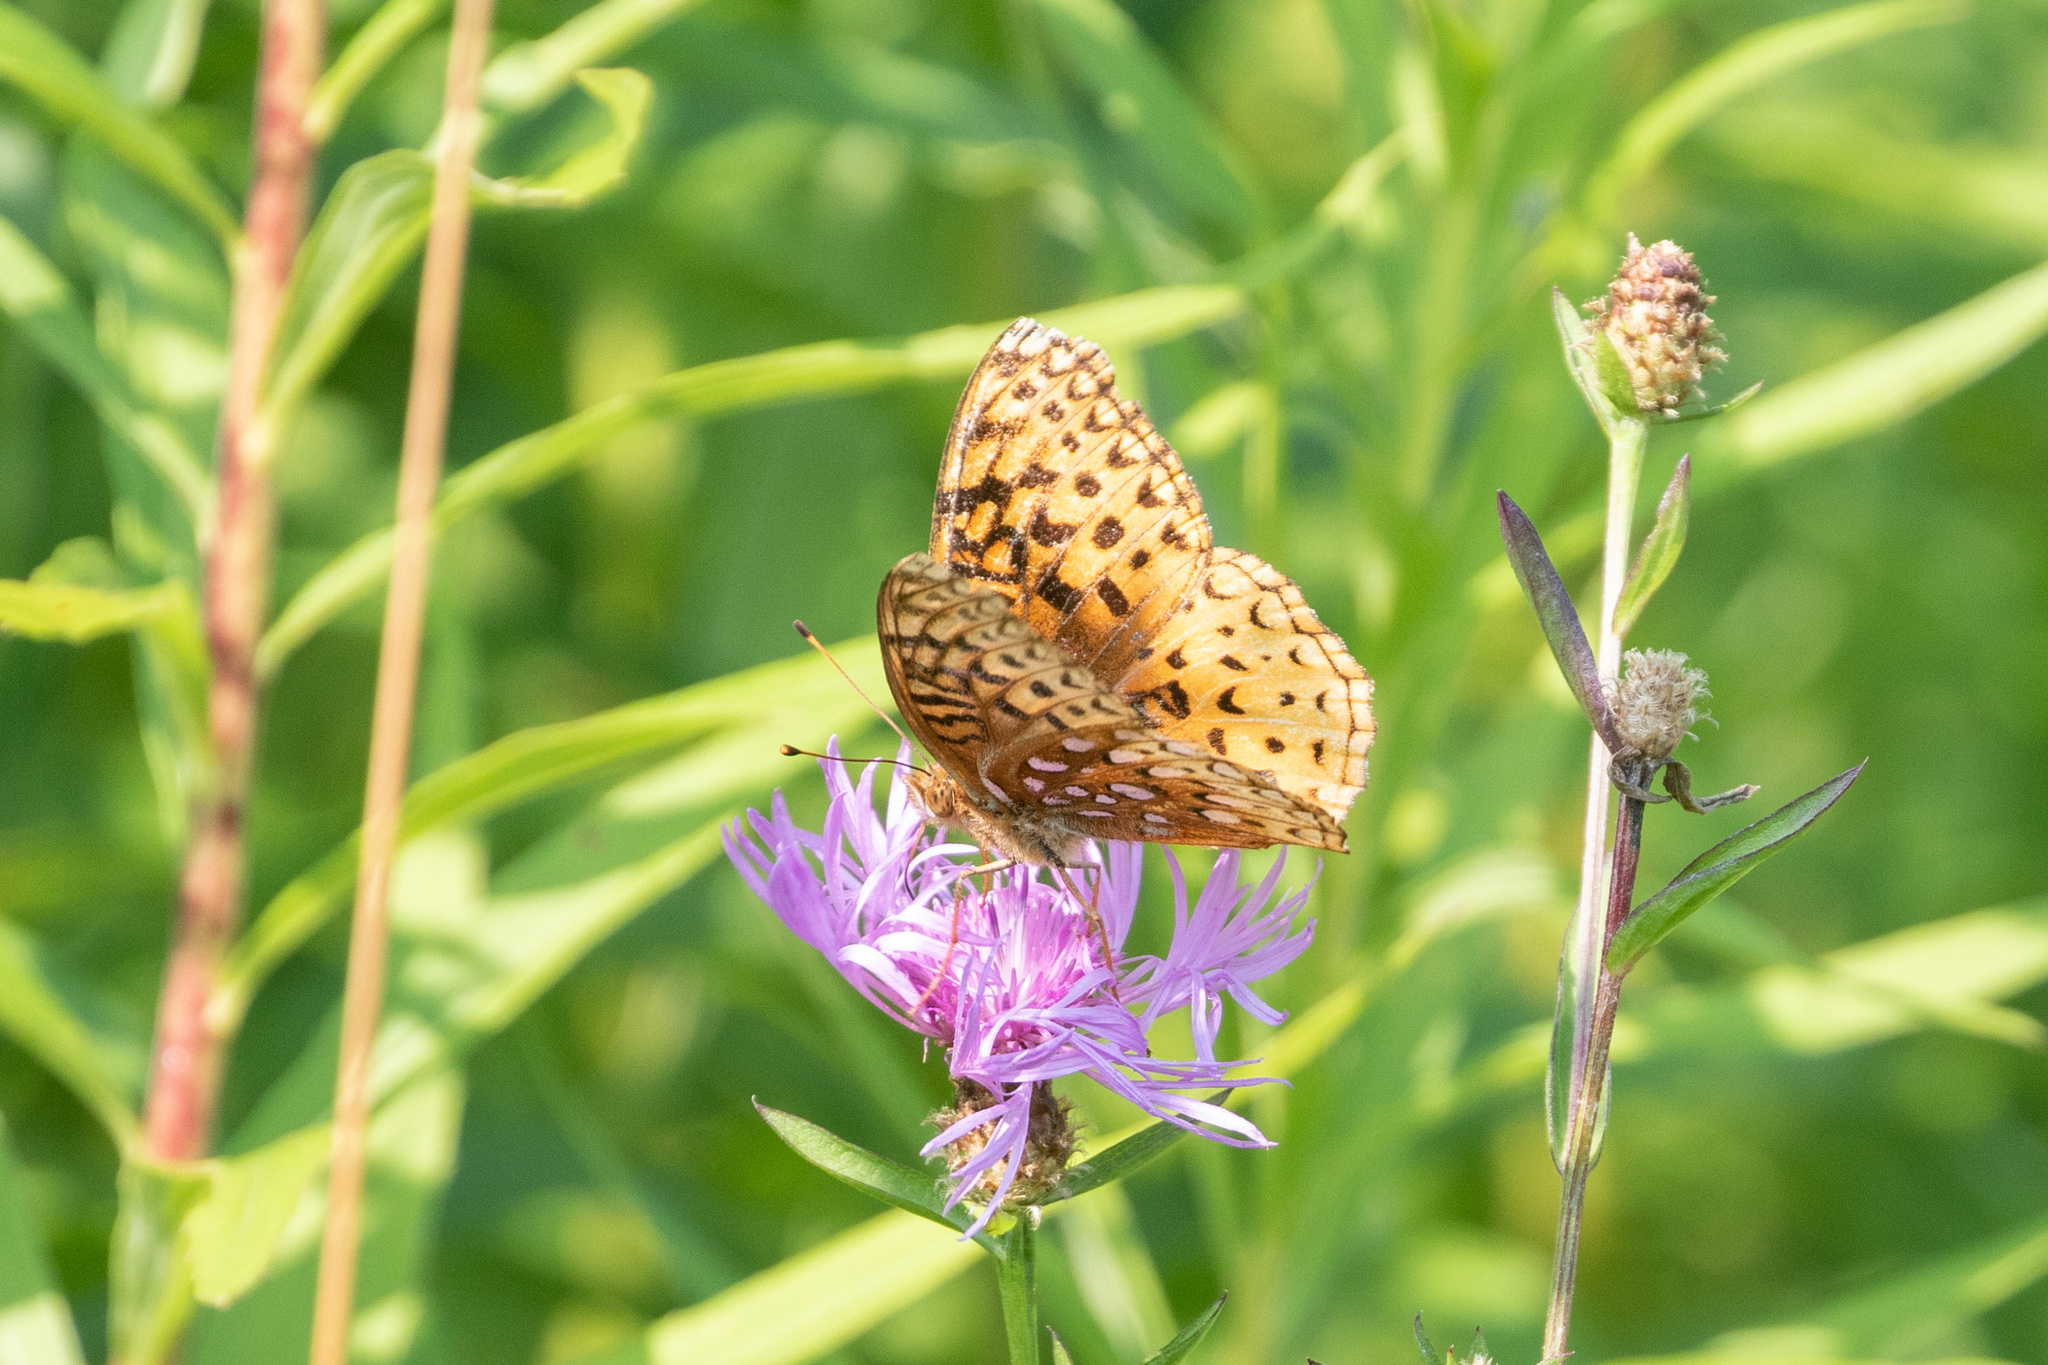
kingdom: Animalia
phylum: Arthropoda
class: Insecta
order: Lepidoptera
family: Nymphalidae
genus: Speyeria
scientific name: Speyeria cybele
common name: Great spangled fritillary
